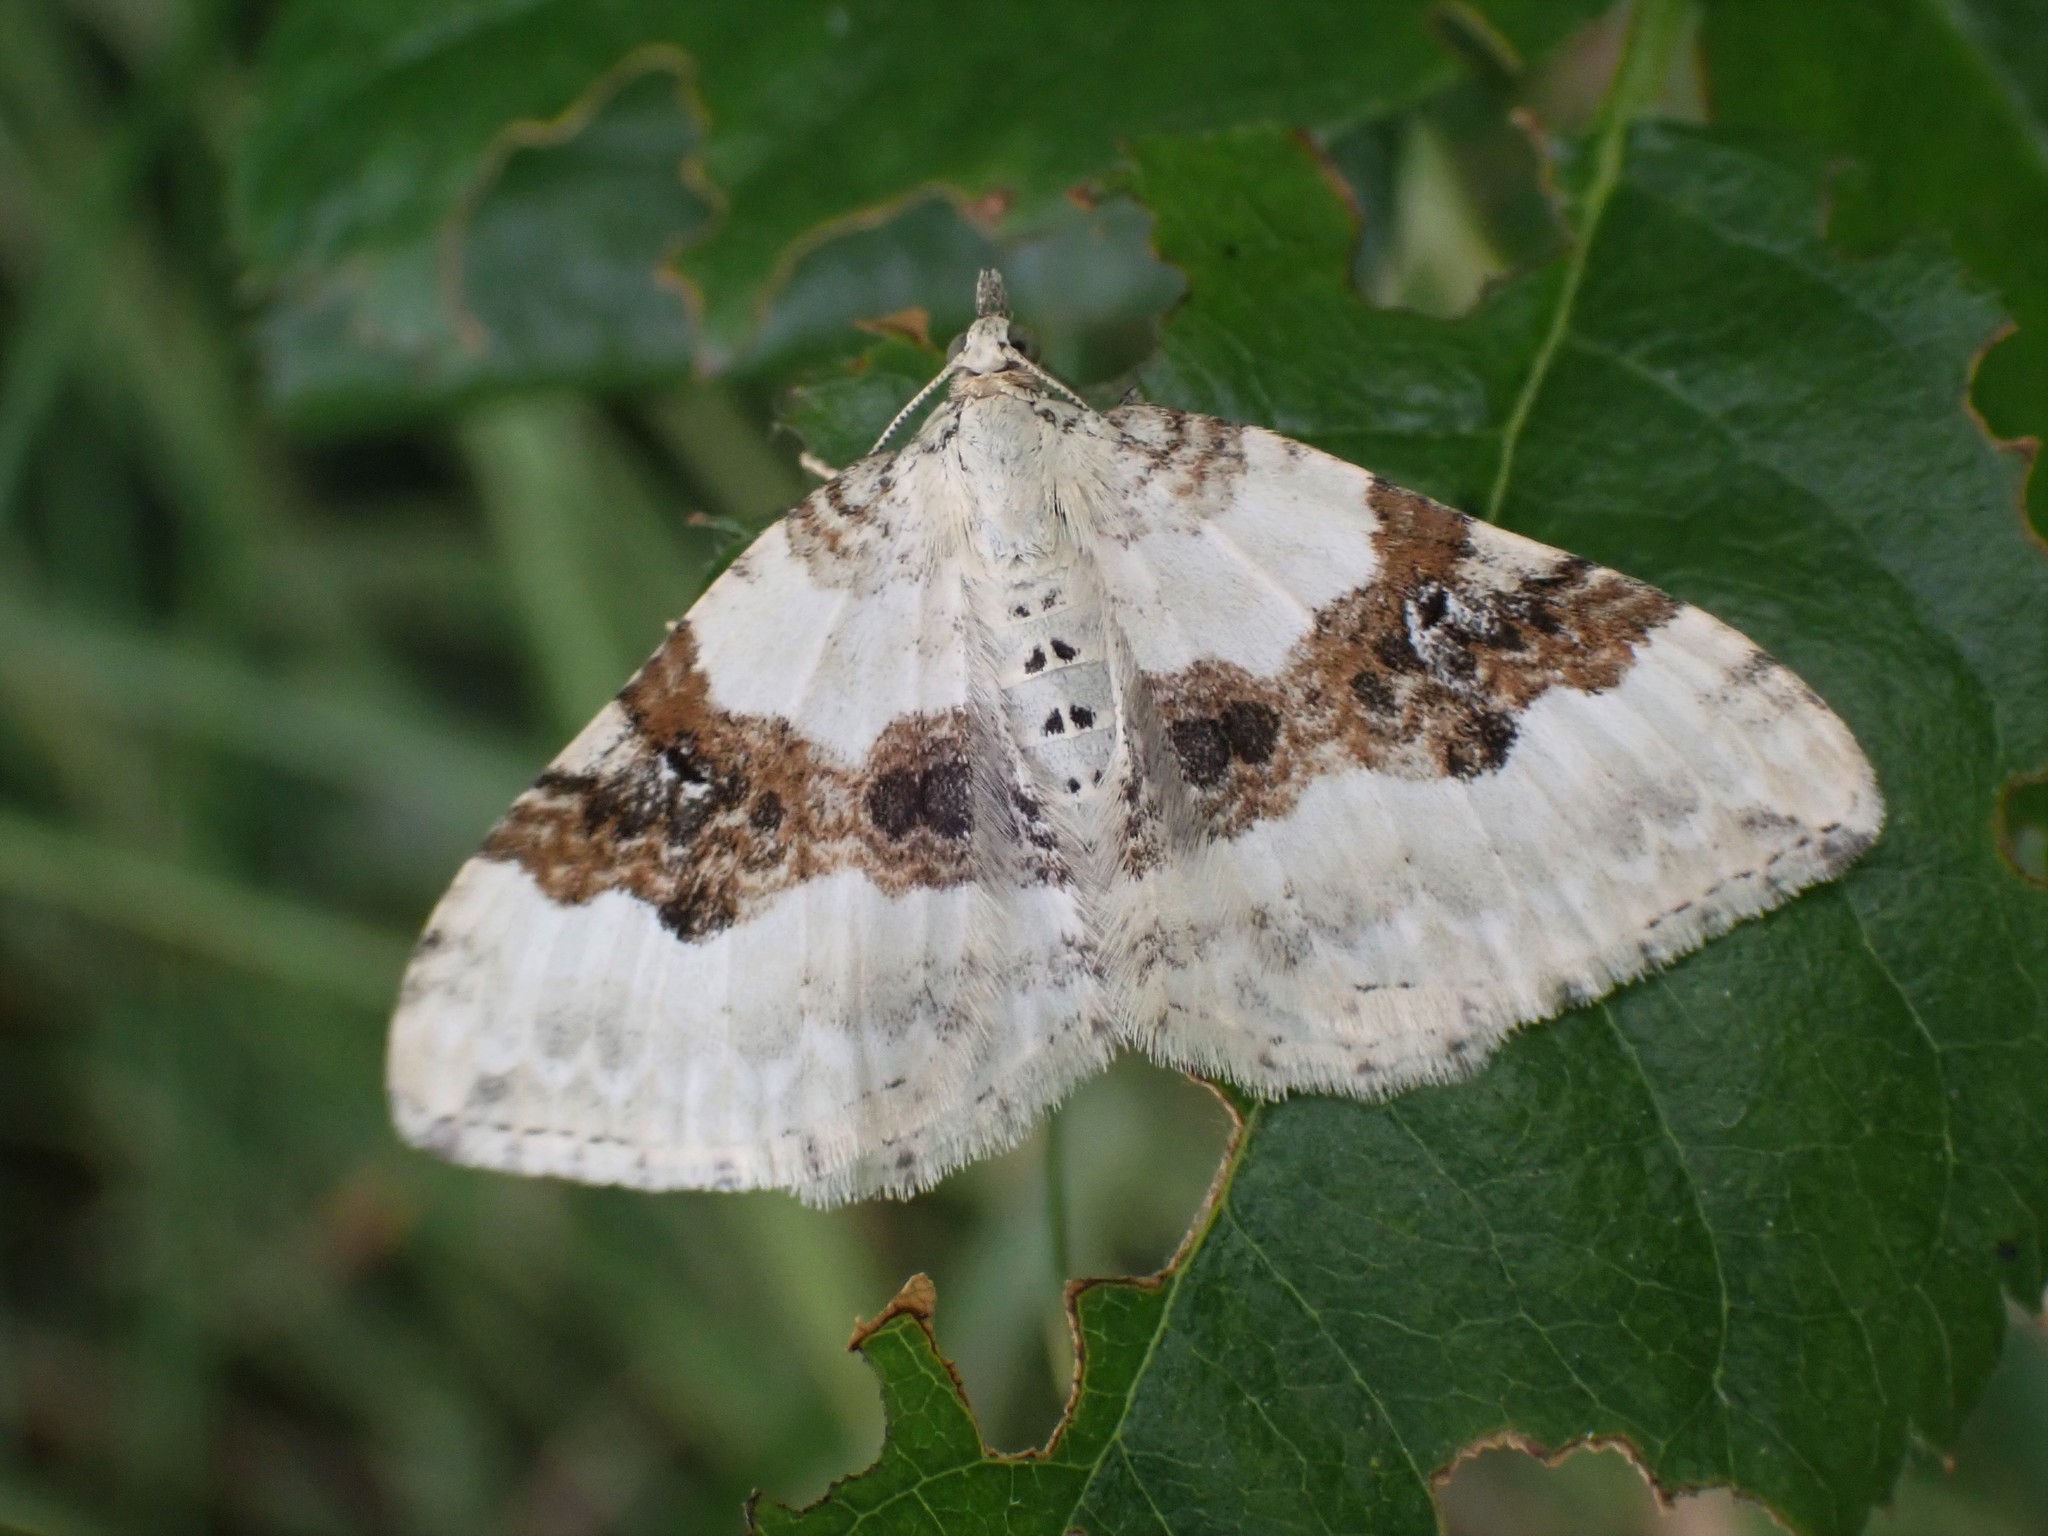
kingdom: Animalia
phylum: Arthropoda
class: Insecta
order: Lepidoptera
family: Geometridae
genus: Xanthorhoe
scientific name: Xanthorhoe montanata
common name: Silver-ground carpet
